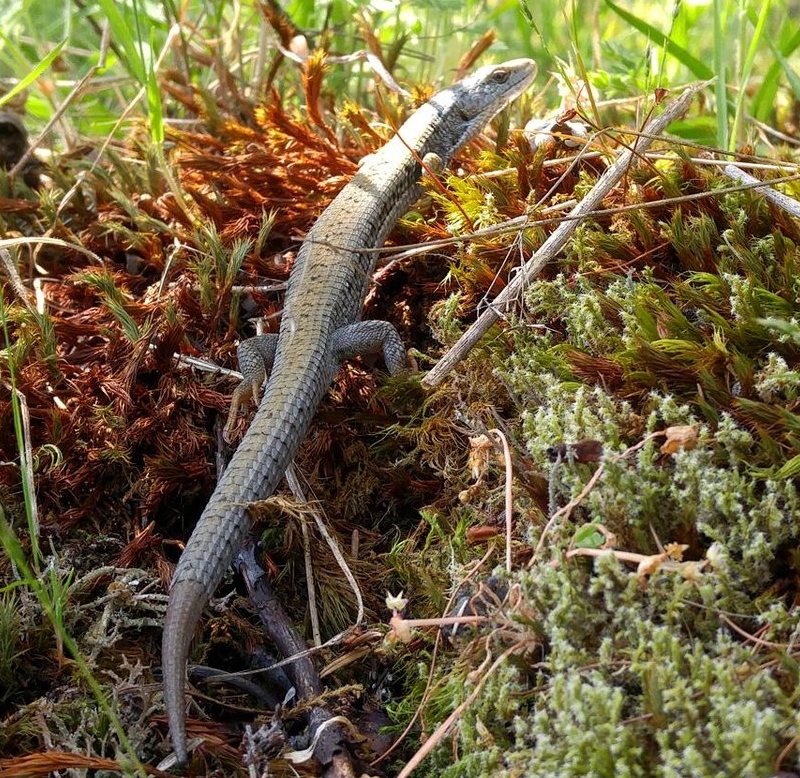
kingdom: Animalia
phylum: Chordata
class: Squamata
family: Anguidae
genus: Elgaria
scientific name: Elgaria coerulea
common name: Northern alligator lizard
